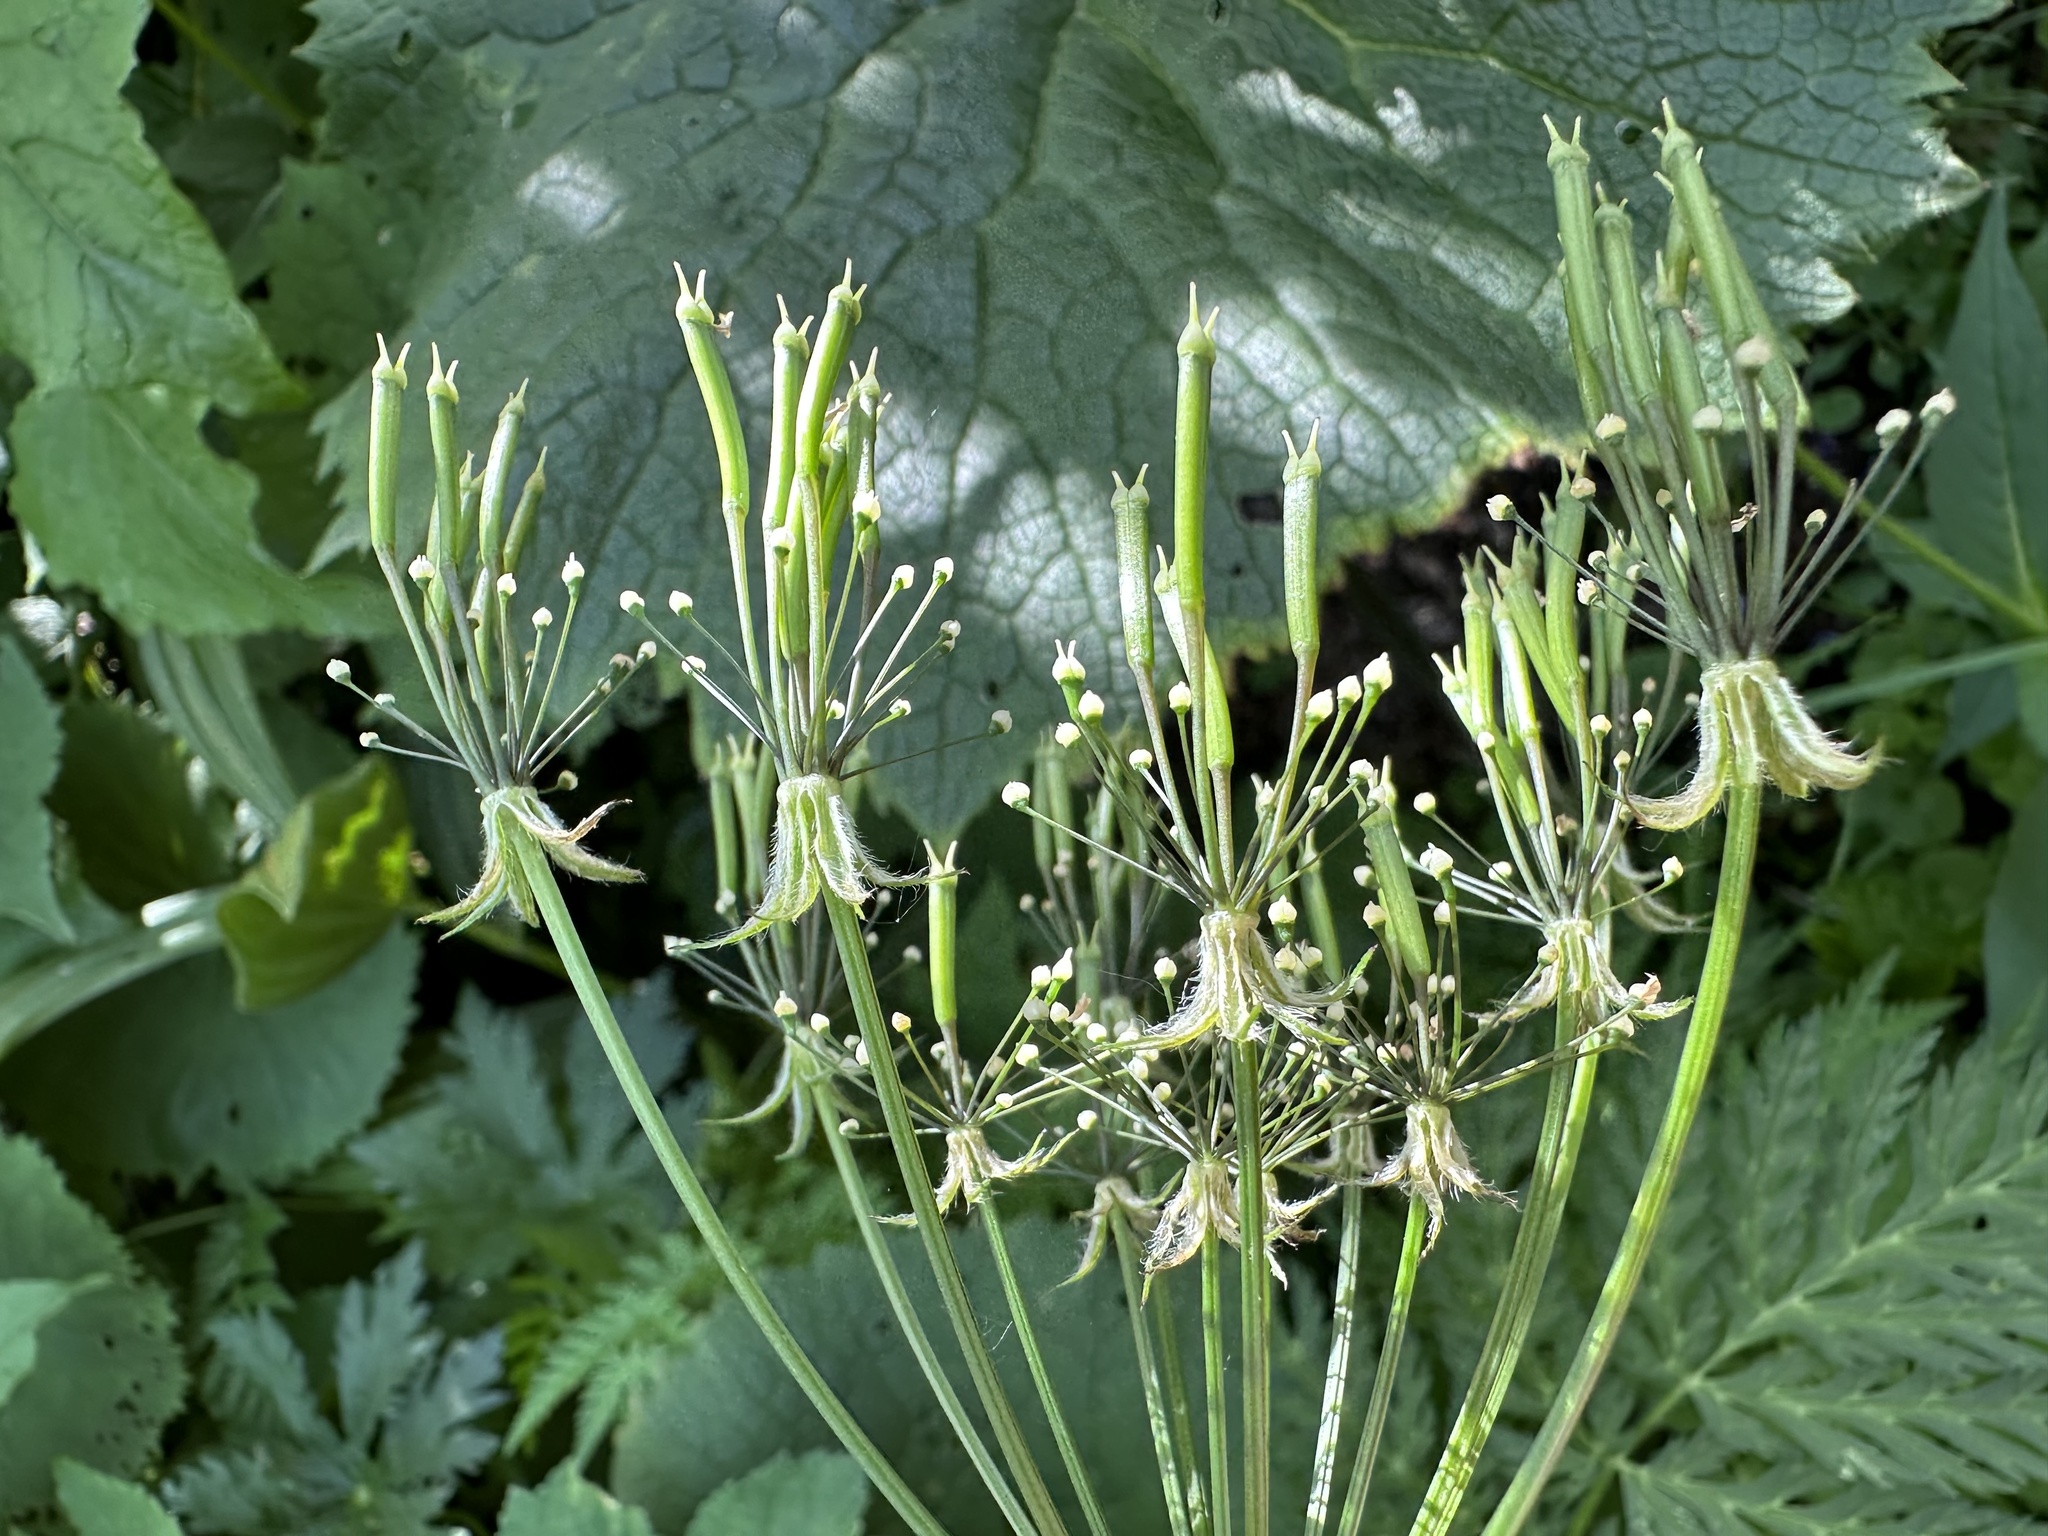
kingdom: Plantae
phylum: Tracheophyta
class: Magnoliopsida
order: Apiales
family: Apiaceae
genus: Chaerophyllum
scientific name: Chaerophyllum hirsutum
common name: Hairy chervil
